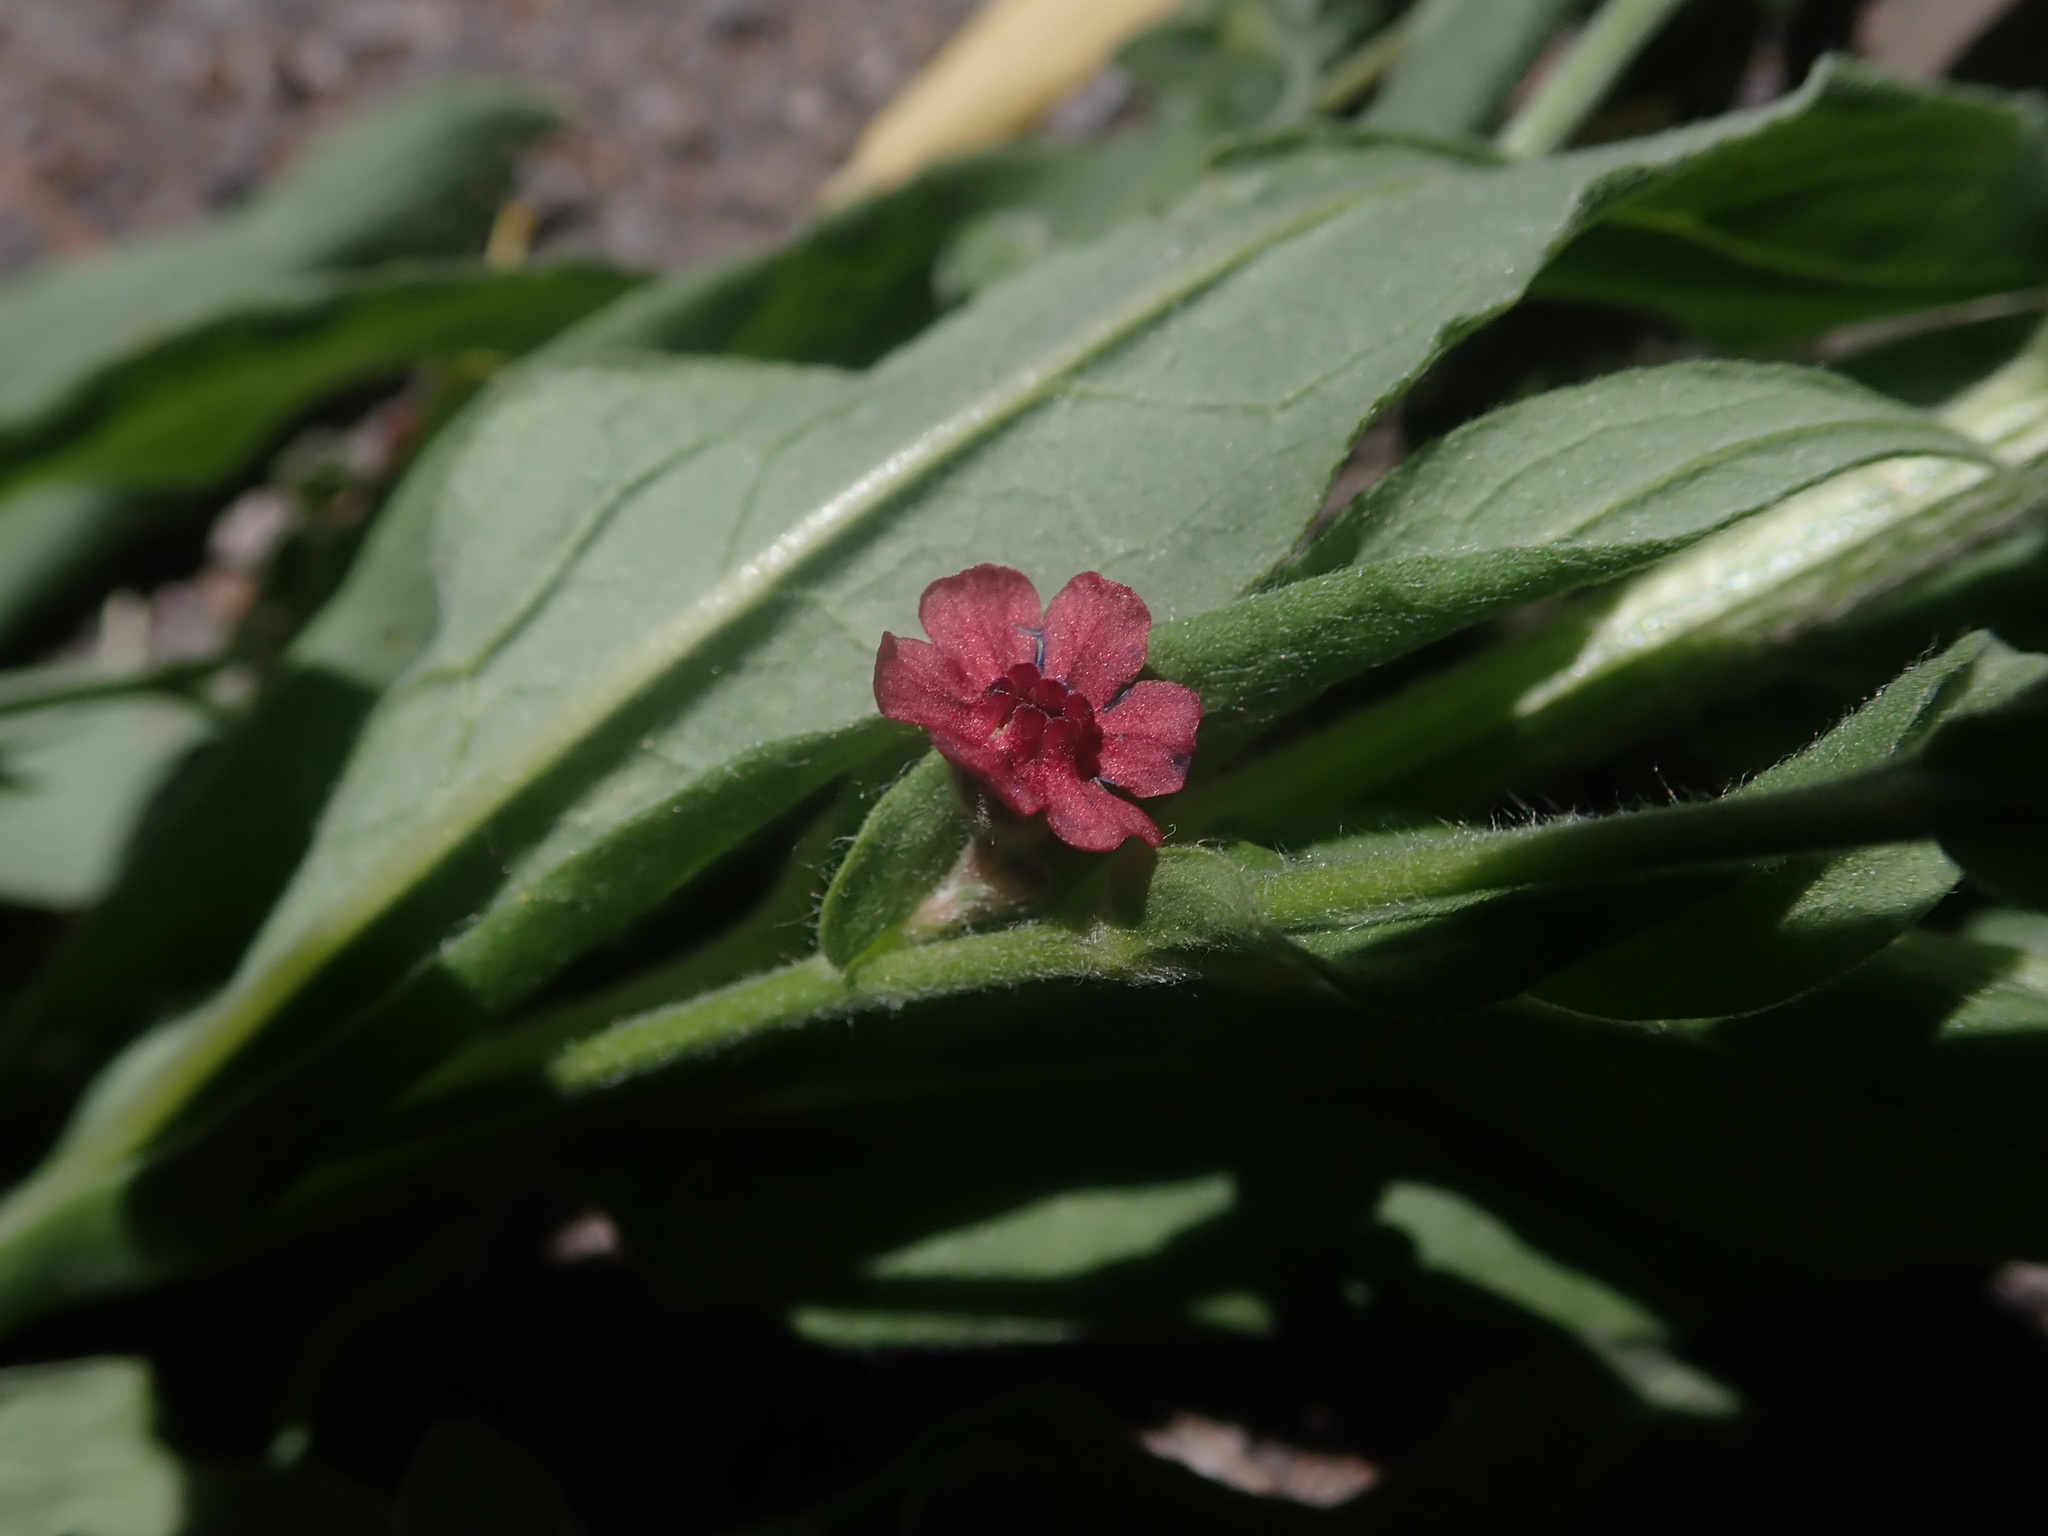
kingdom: Plantae
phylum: Tracheophyta
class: Magnoliopsida
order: Boraginales
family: Boraginaceae
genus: Cynoglossum
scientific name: Cynoglossum officinale
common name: Hound's-tongue
